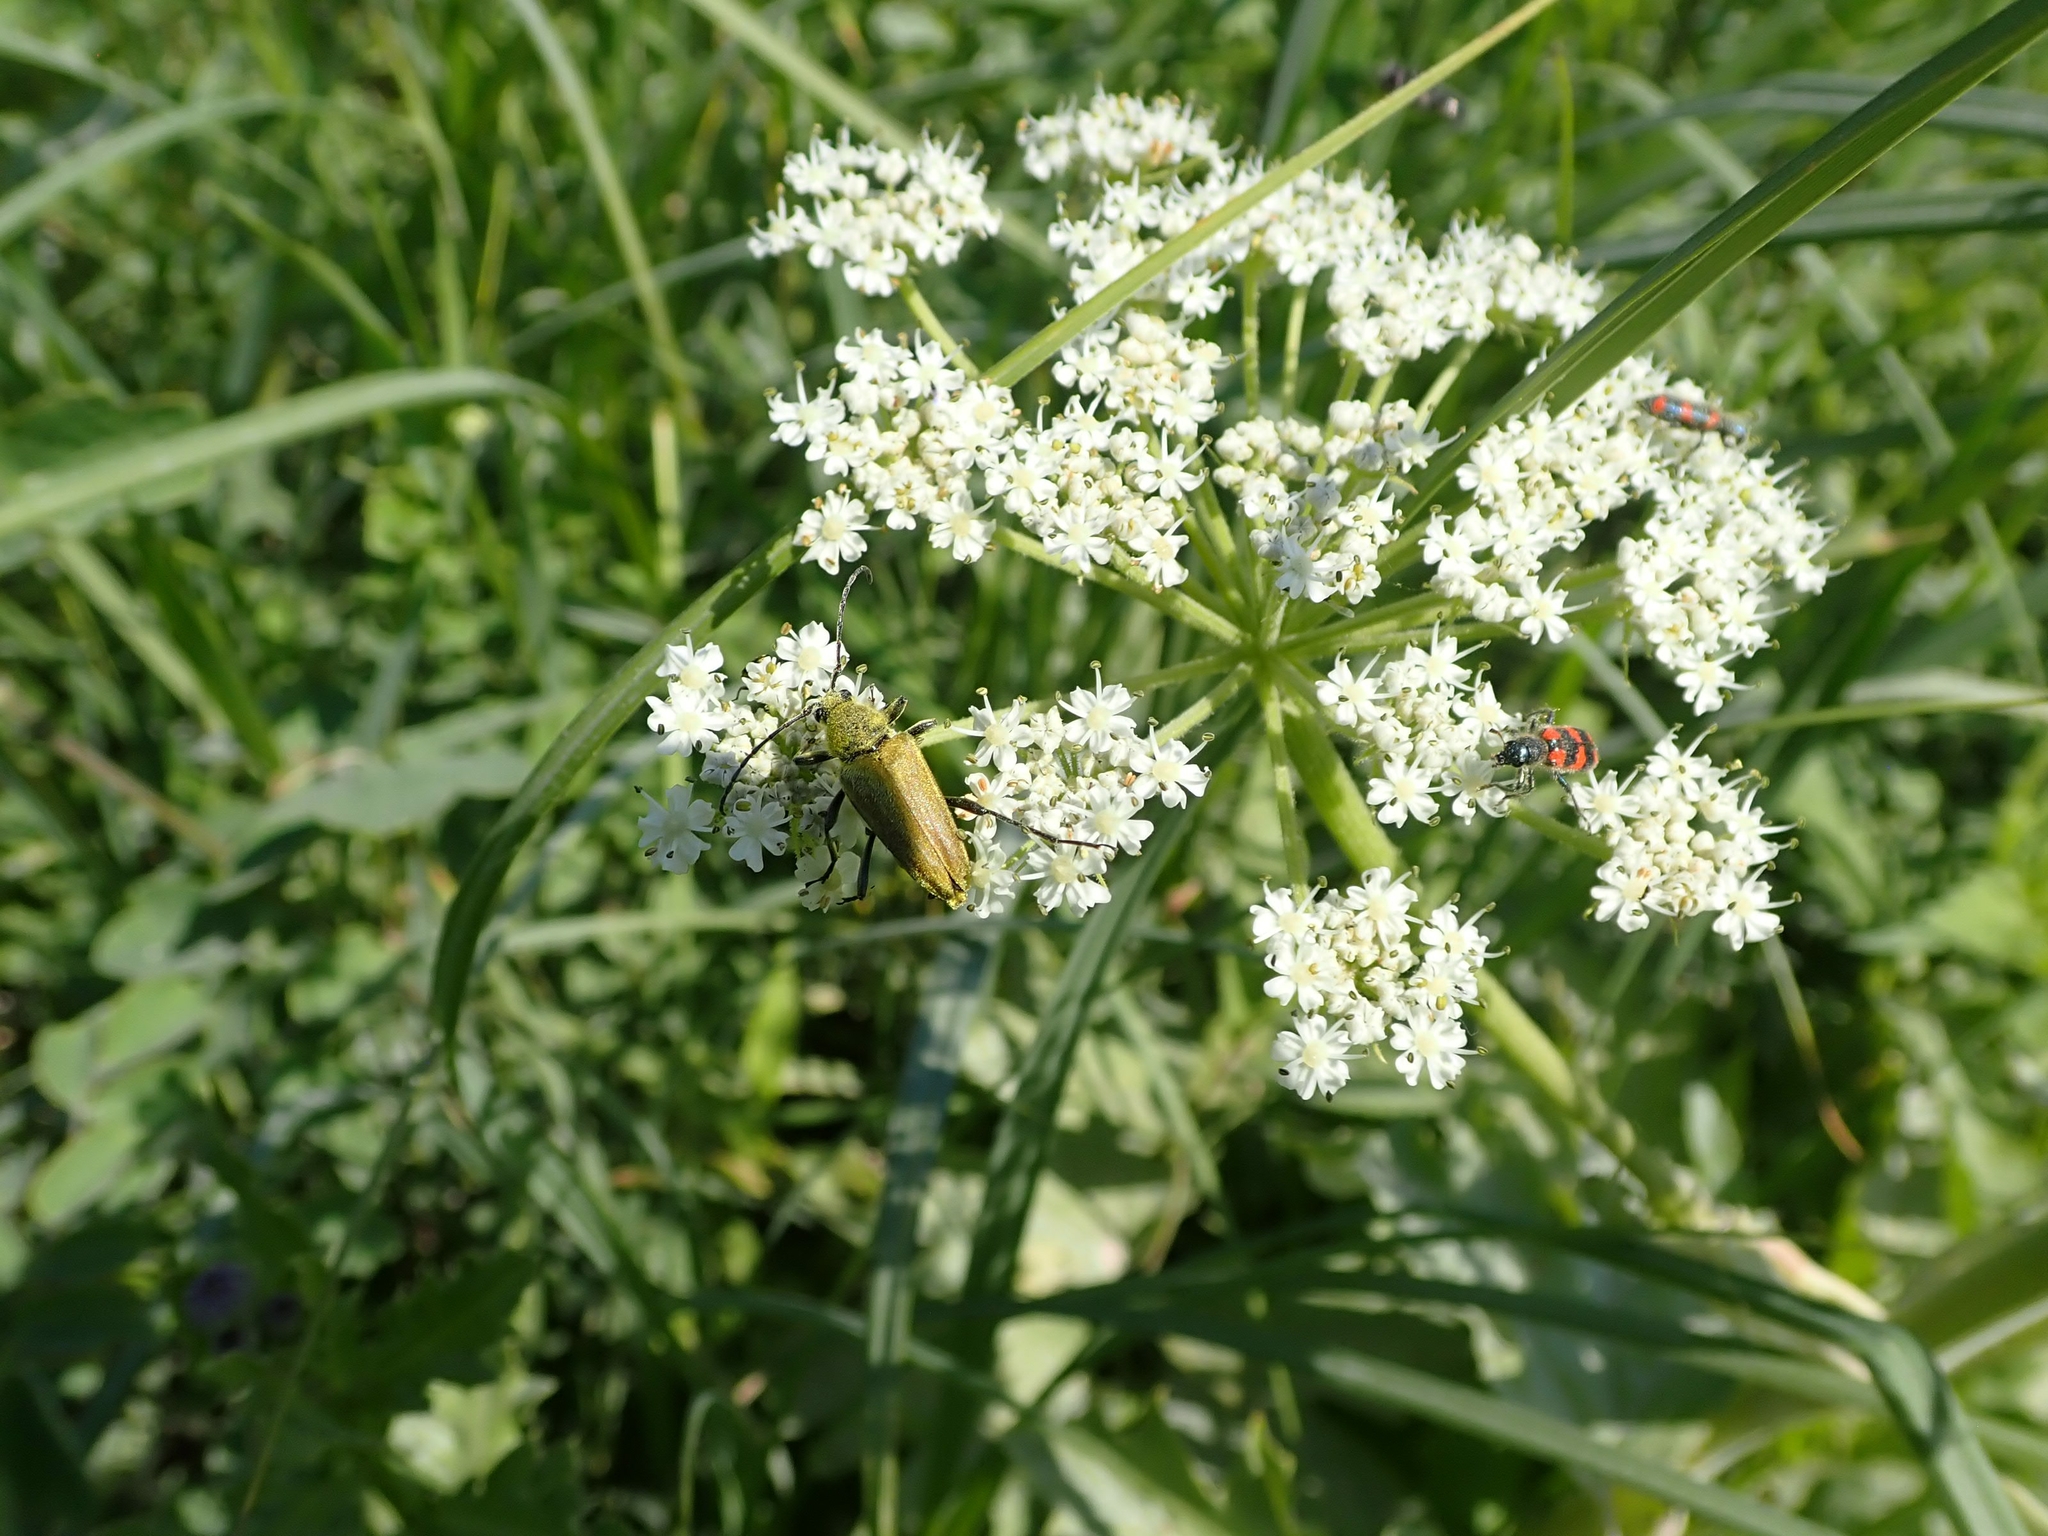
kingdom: Plantae
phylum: Tracheophyta
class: Magnoliopsida
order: Apiales
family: Apiaceae
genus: Heracleum
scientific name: Heracleum maximum
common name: American cow parsnip
